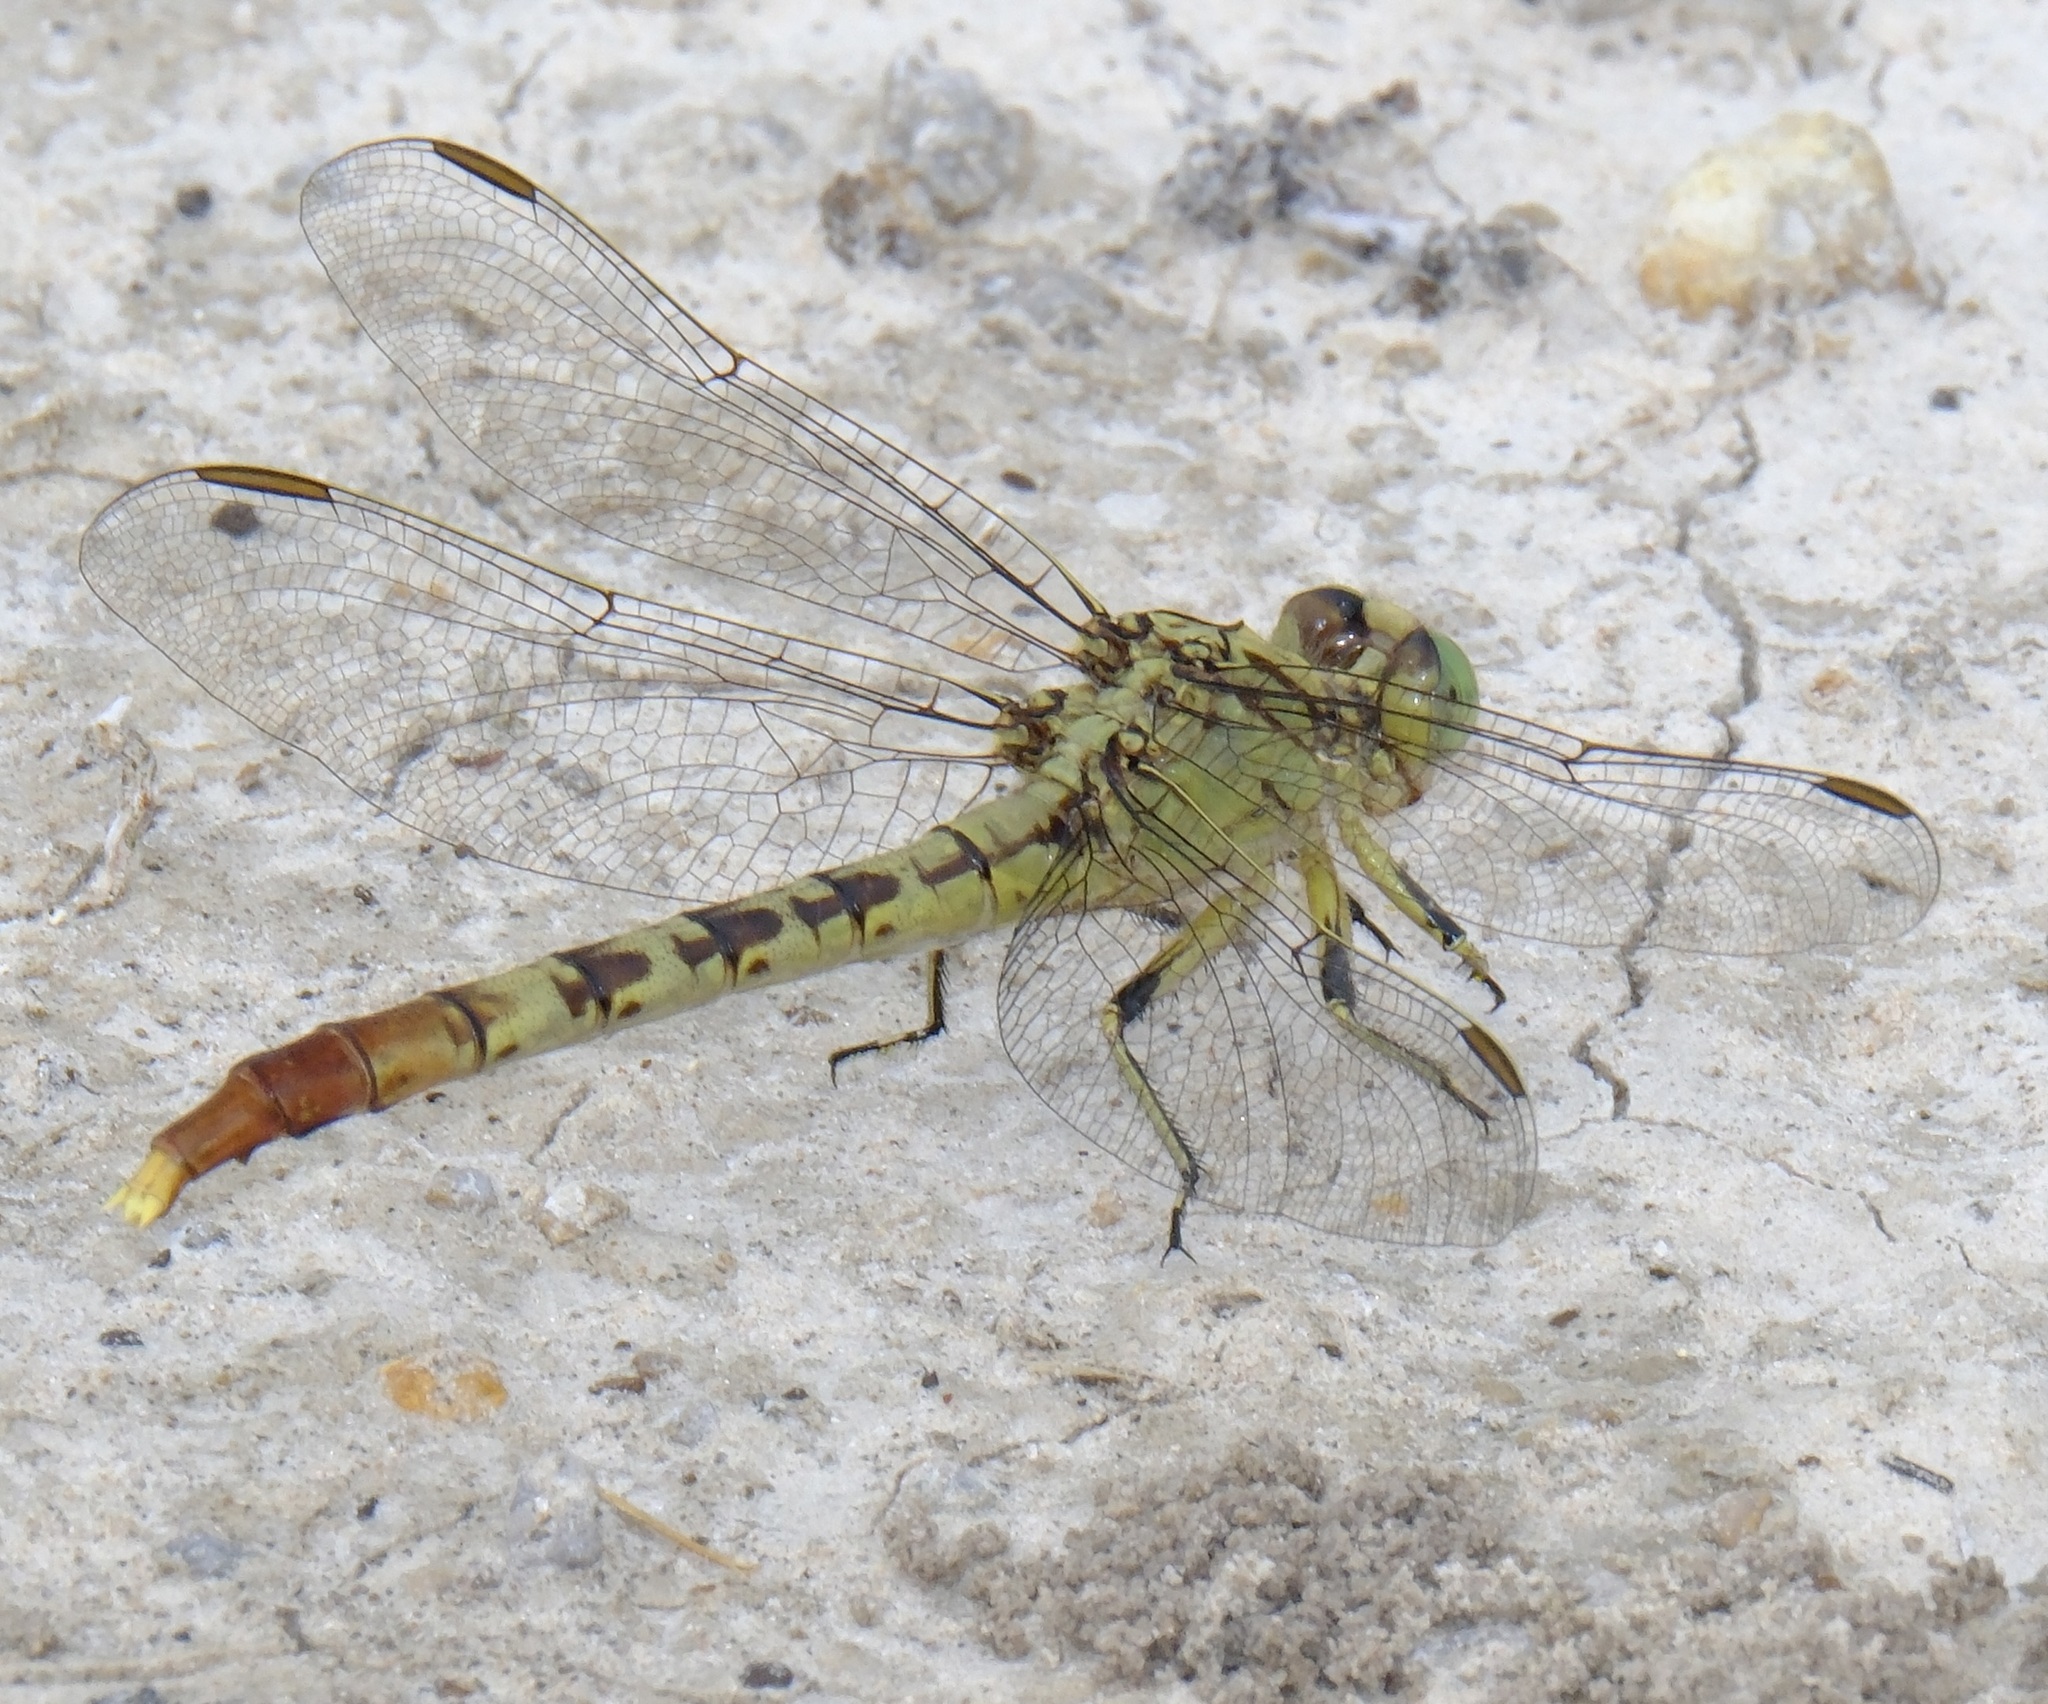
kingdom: Animalia
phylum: Arthropoda
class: Insecta
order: Odonata
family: Gomphidae
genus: Arigomphus
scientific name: Arigomphus submedianus
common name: Jade clubtail
